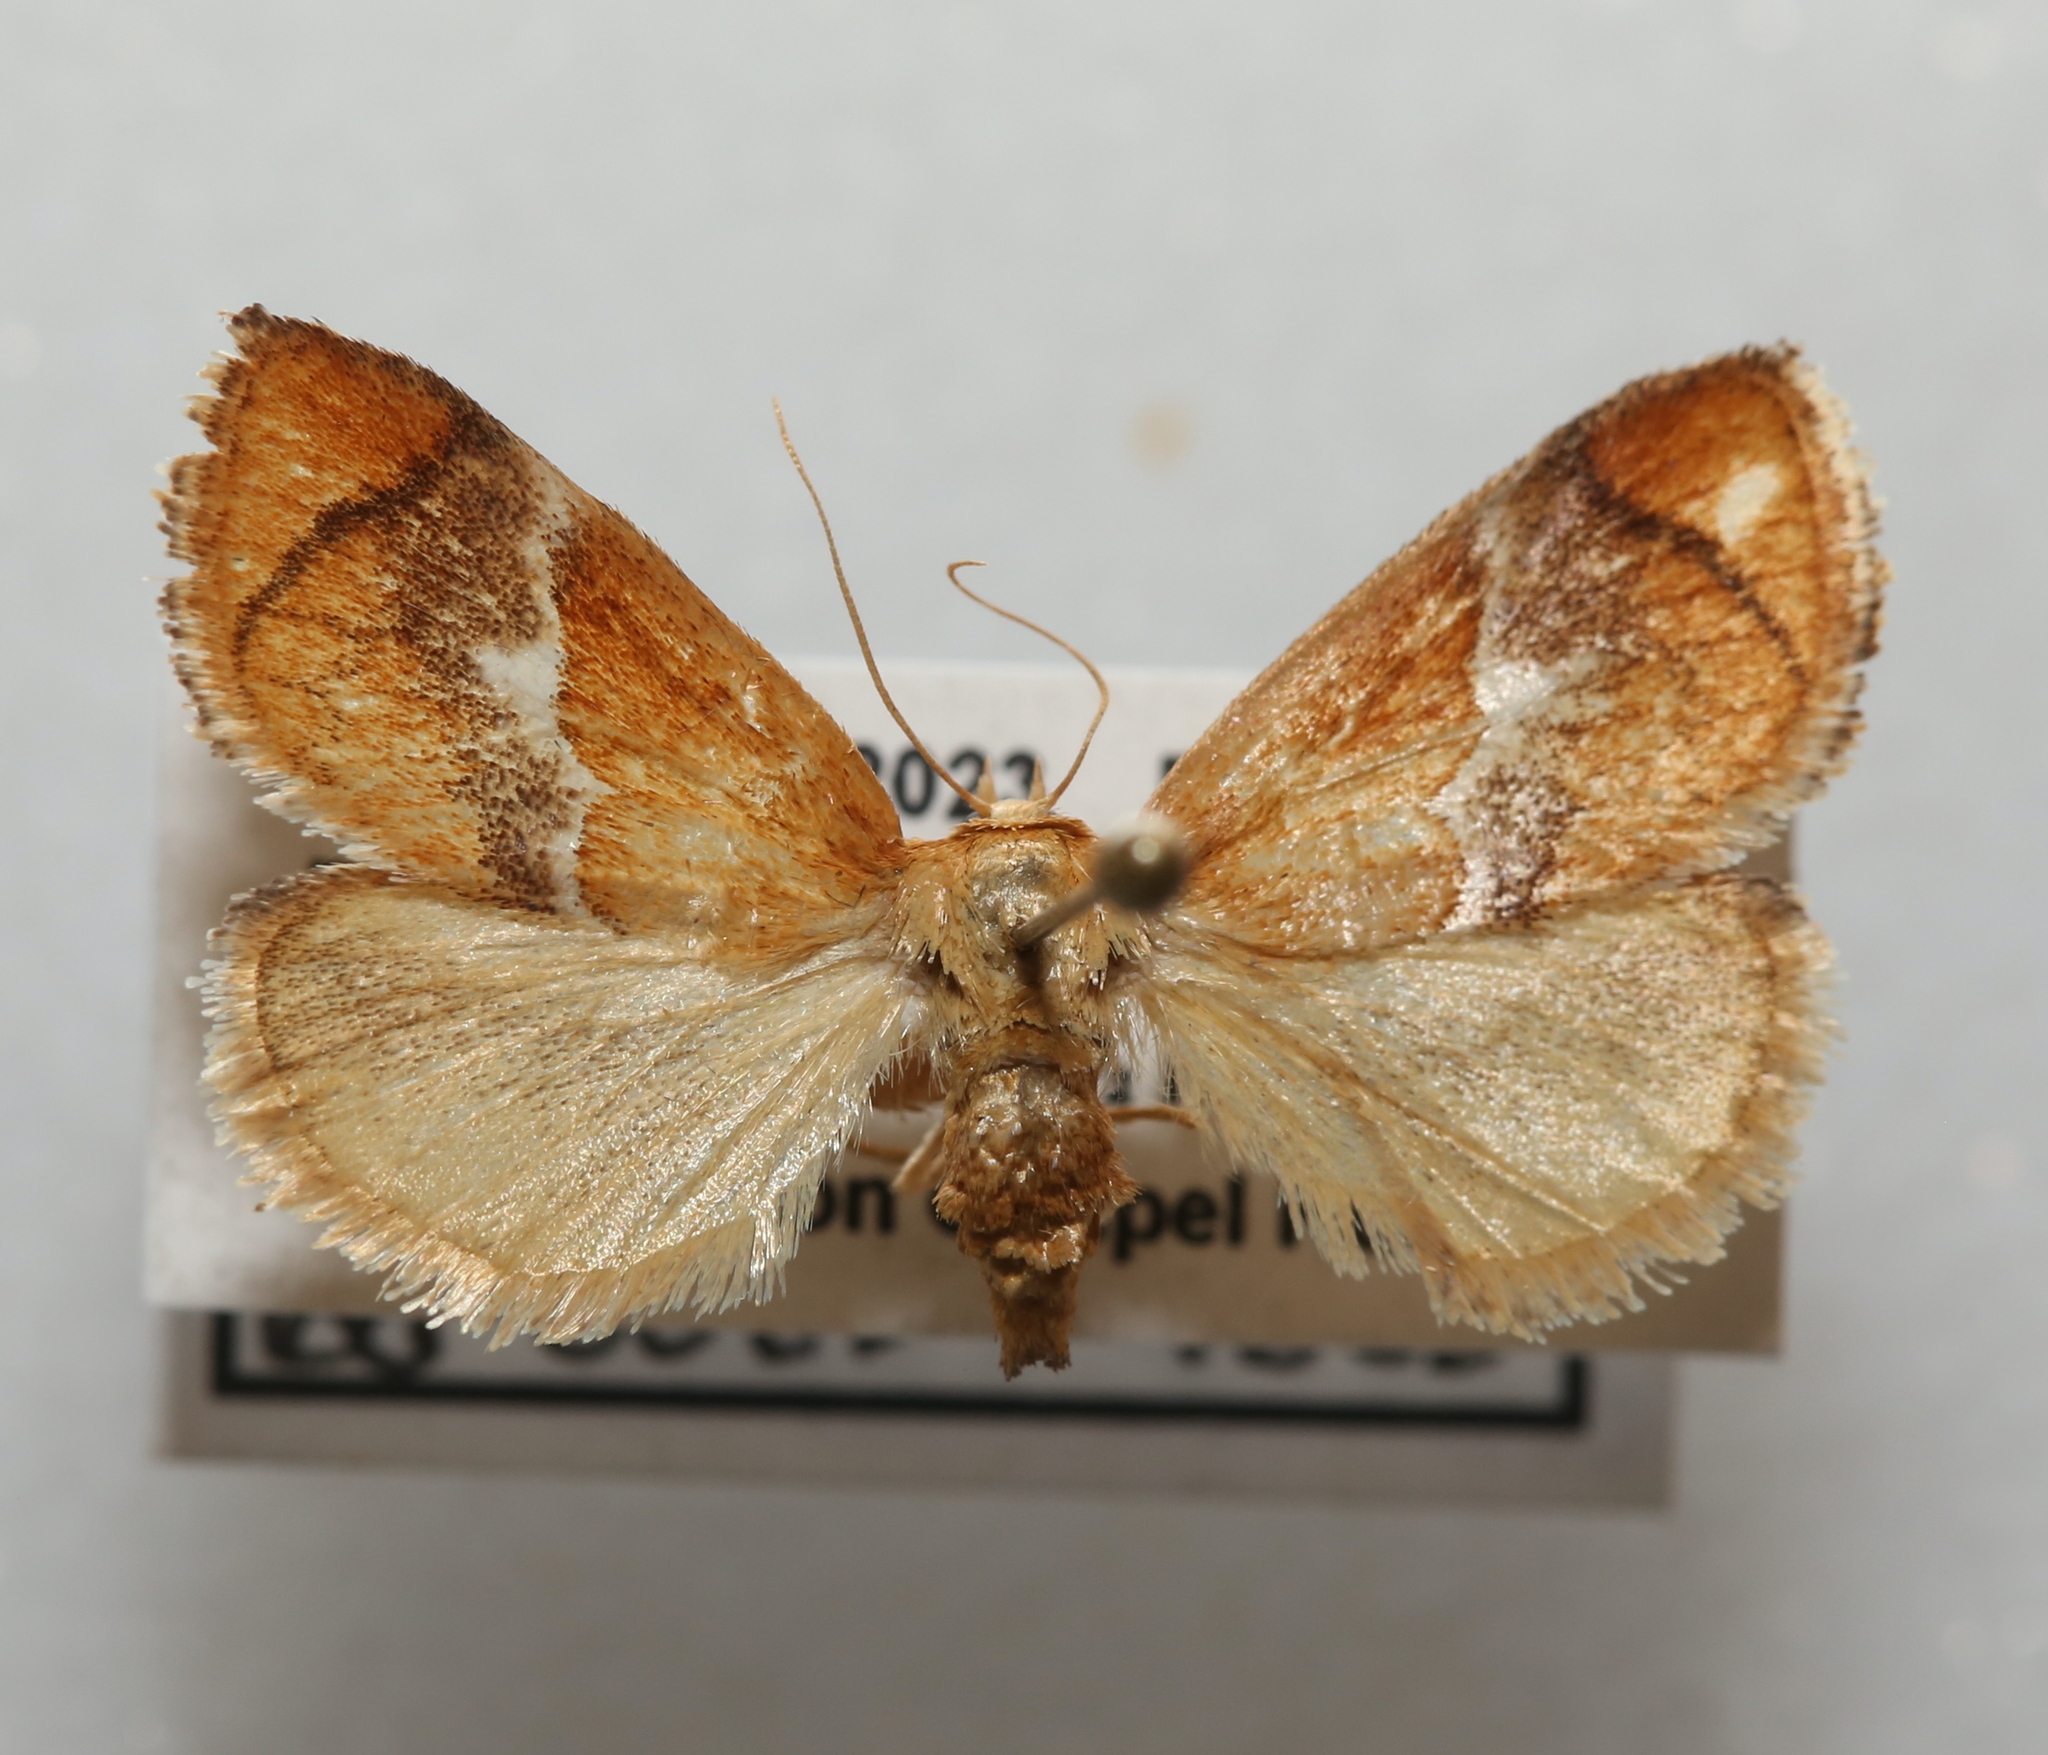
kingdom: Animalia
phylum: Arthropoda
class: Insecta
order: Lepidoptera
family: Limacodidae
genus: Lithacodes
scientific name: Lithacodes fasciola
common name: Yellow-shouldered slug moth
